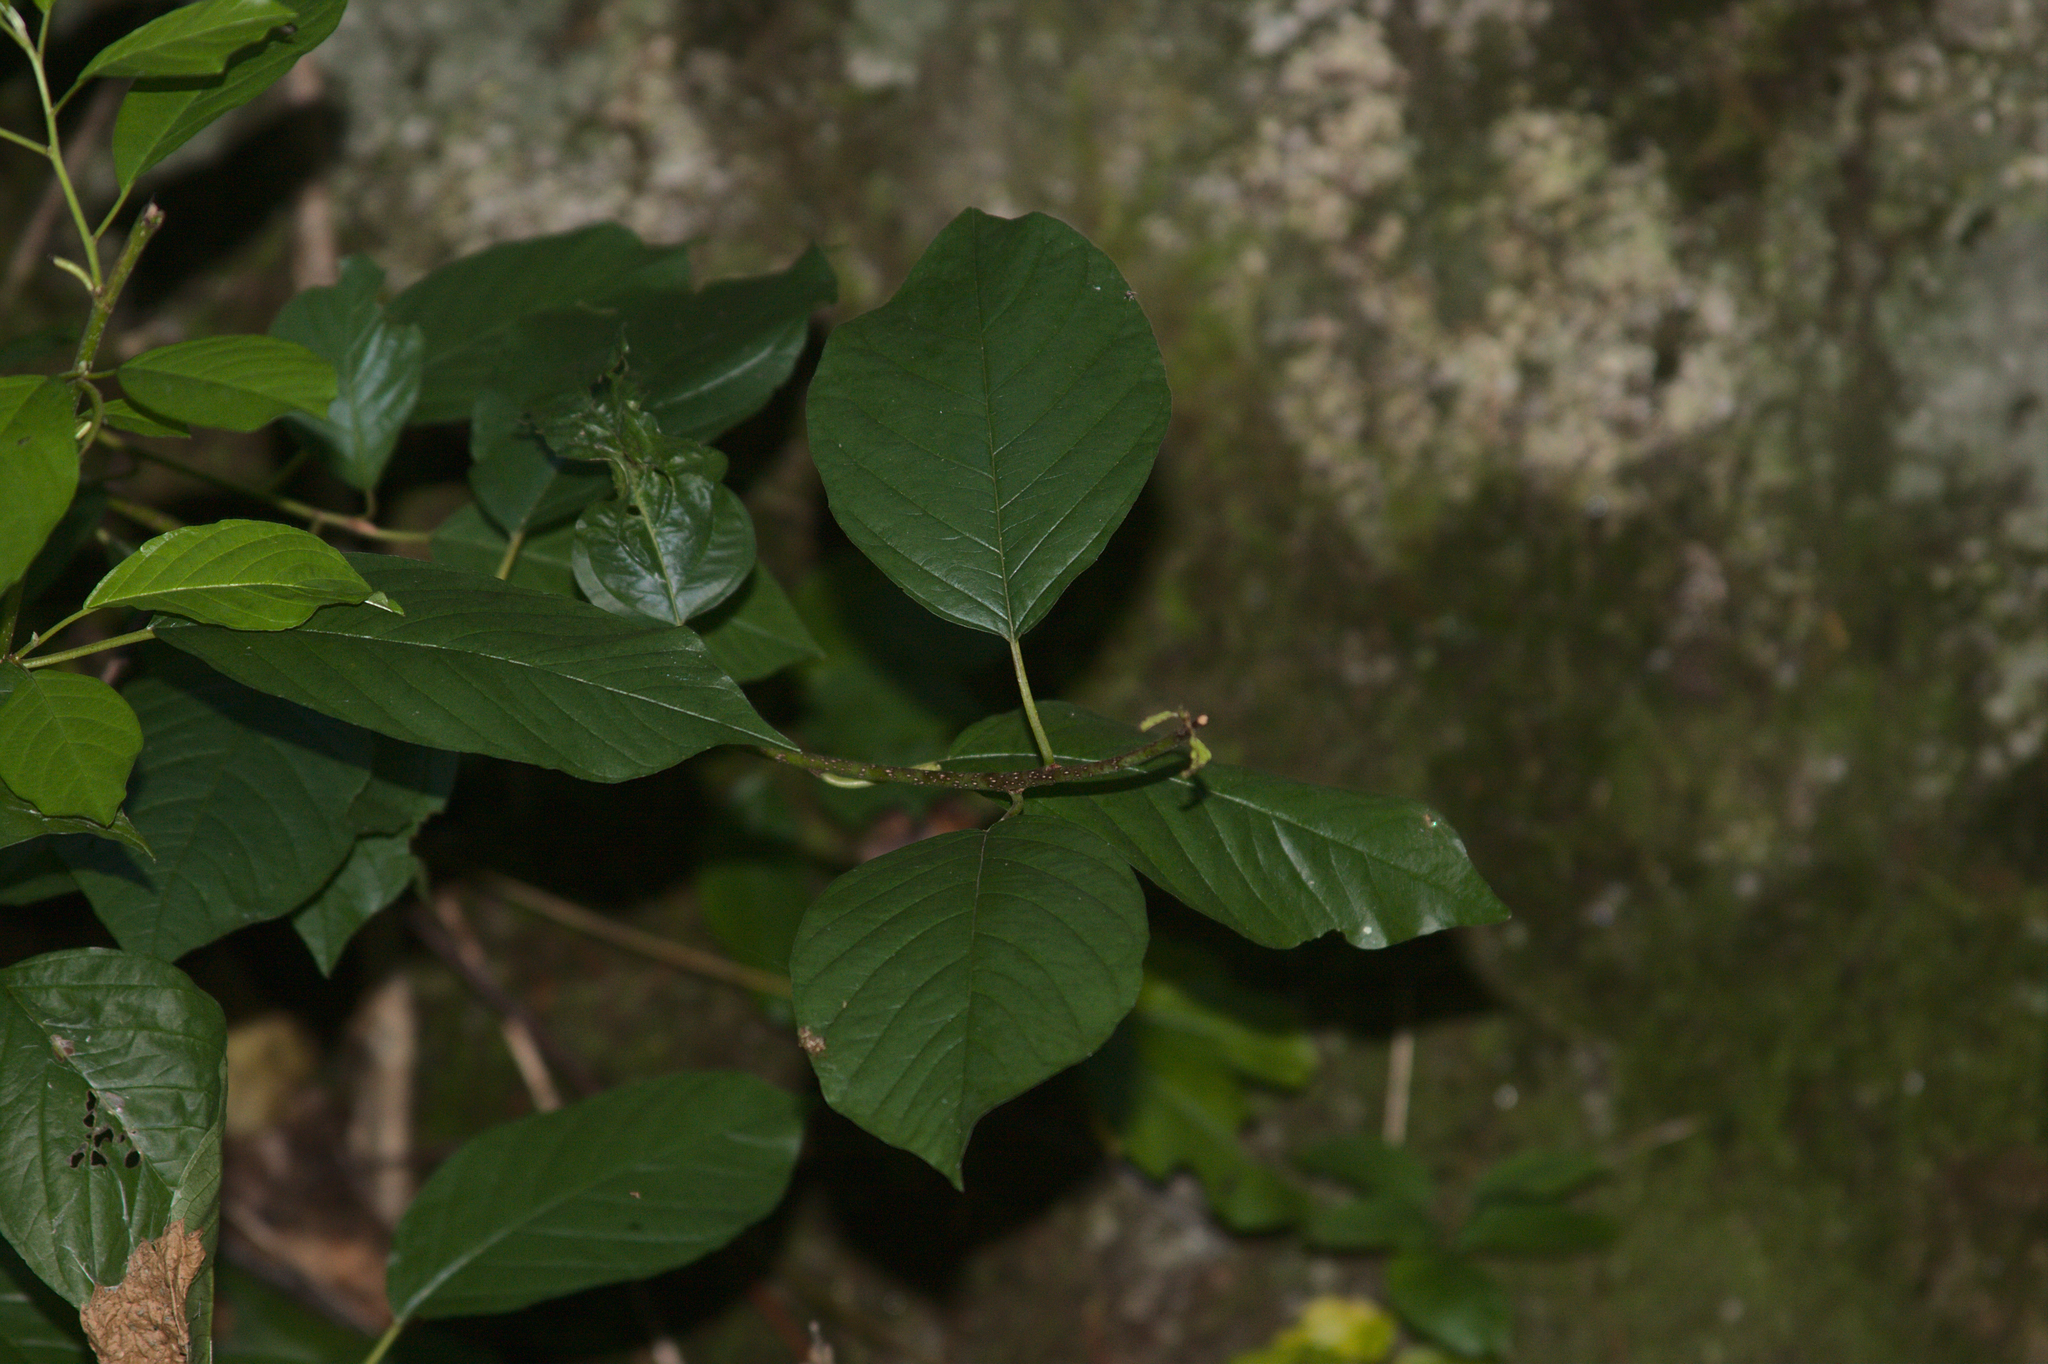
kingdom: Plantae
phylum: Tracheophyta
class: Magnoliopsida
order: Rosales
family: Rhamnaceae
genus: Frangula
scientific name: Frangula alnus
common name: Alder buckthorn
